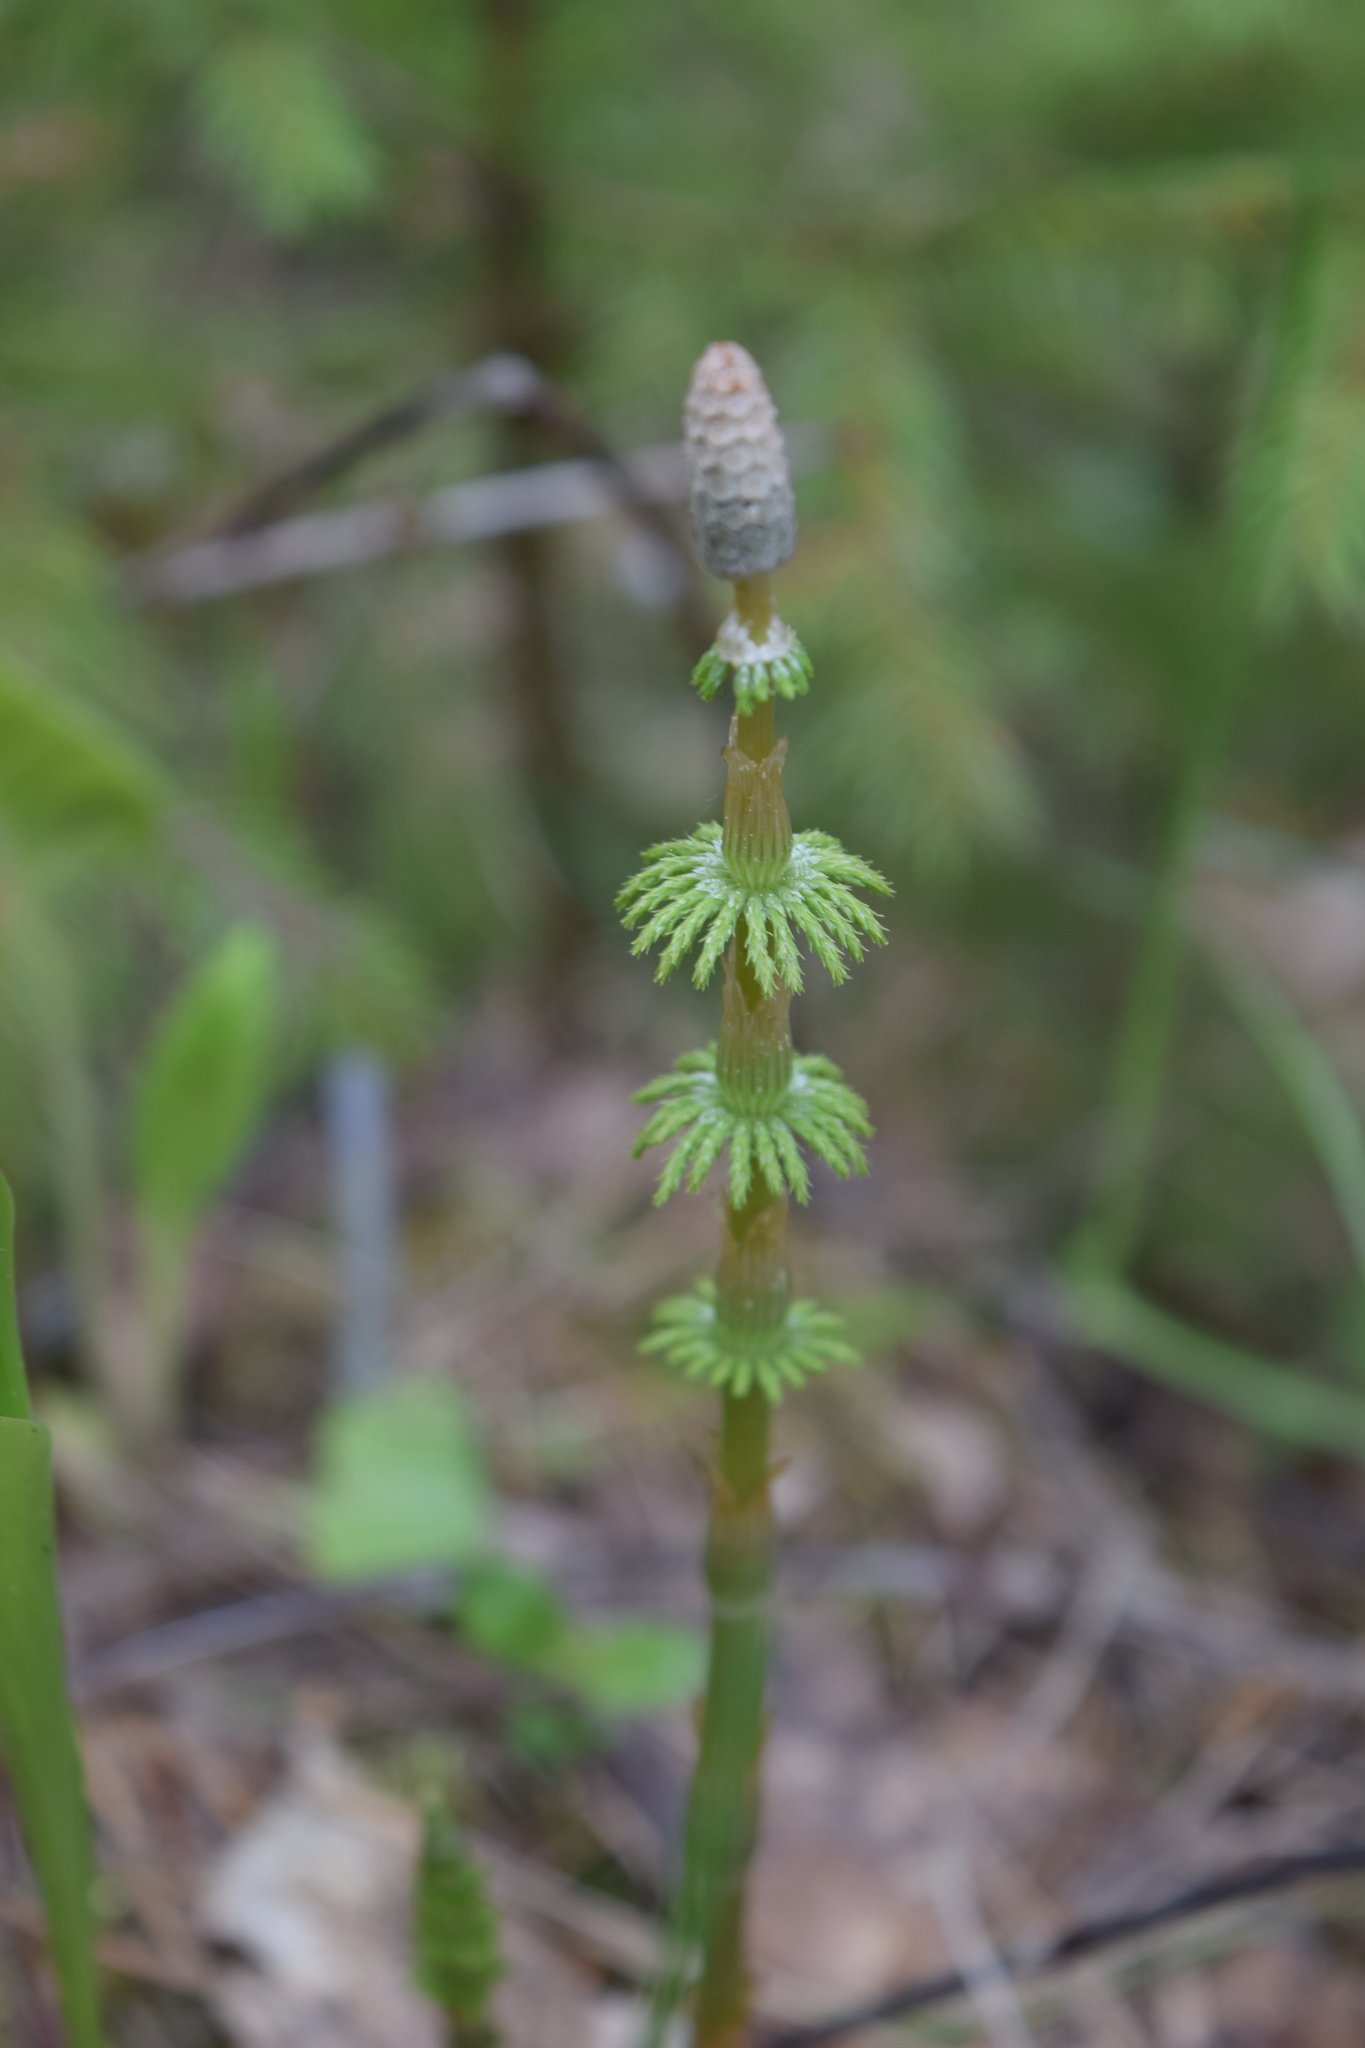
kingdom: Plantae
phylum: Tracheophyta
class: Polypodiopsida
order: Equisetales
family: Equisetaceae
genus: Equisetum
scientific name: Equisetum sylvaticum
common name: Wood horsetail
